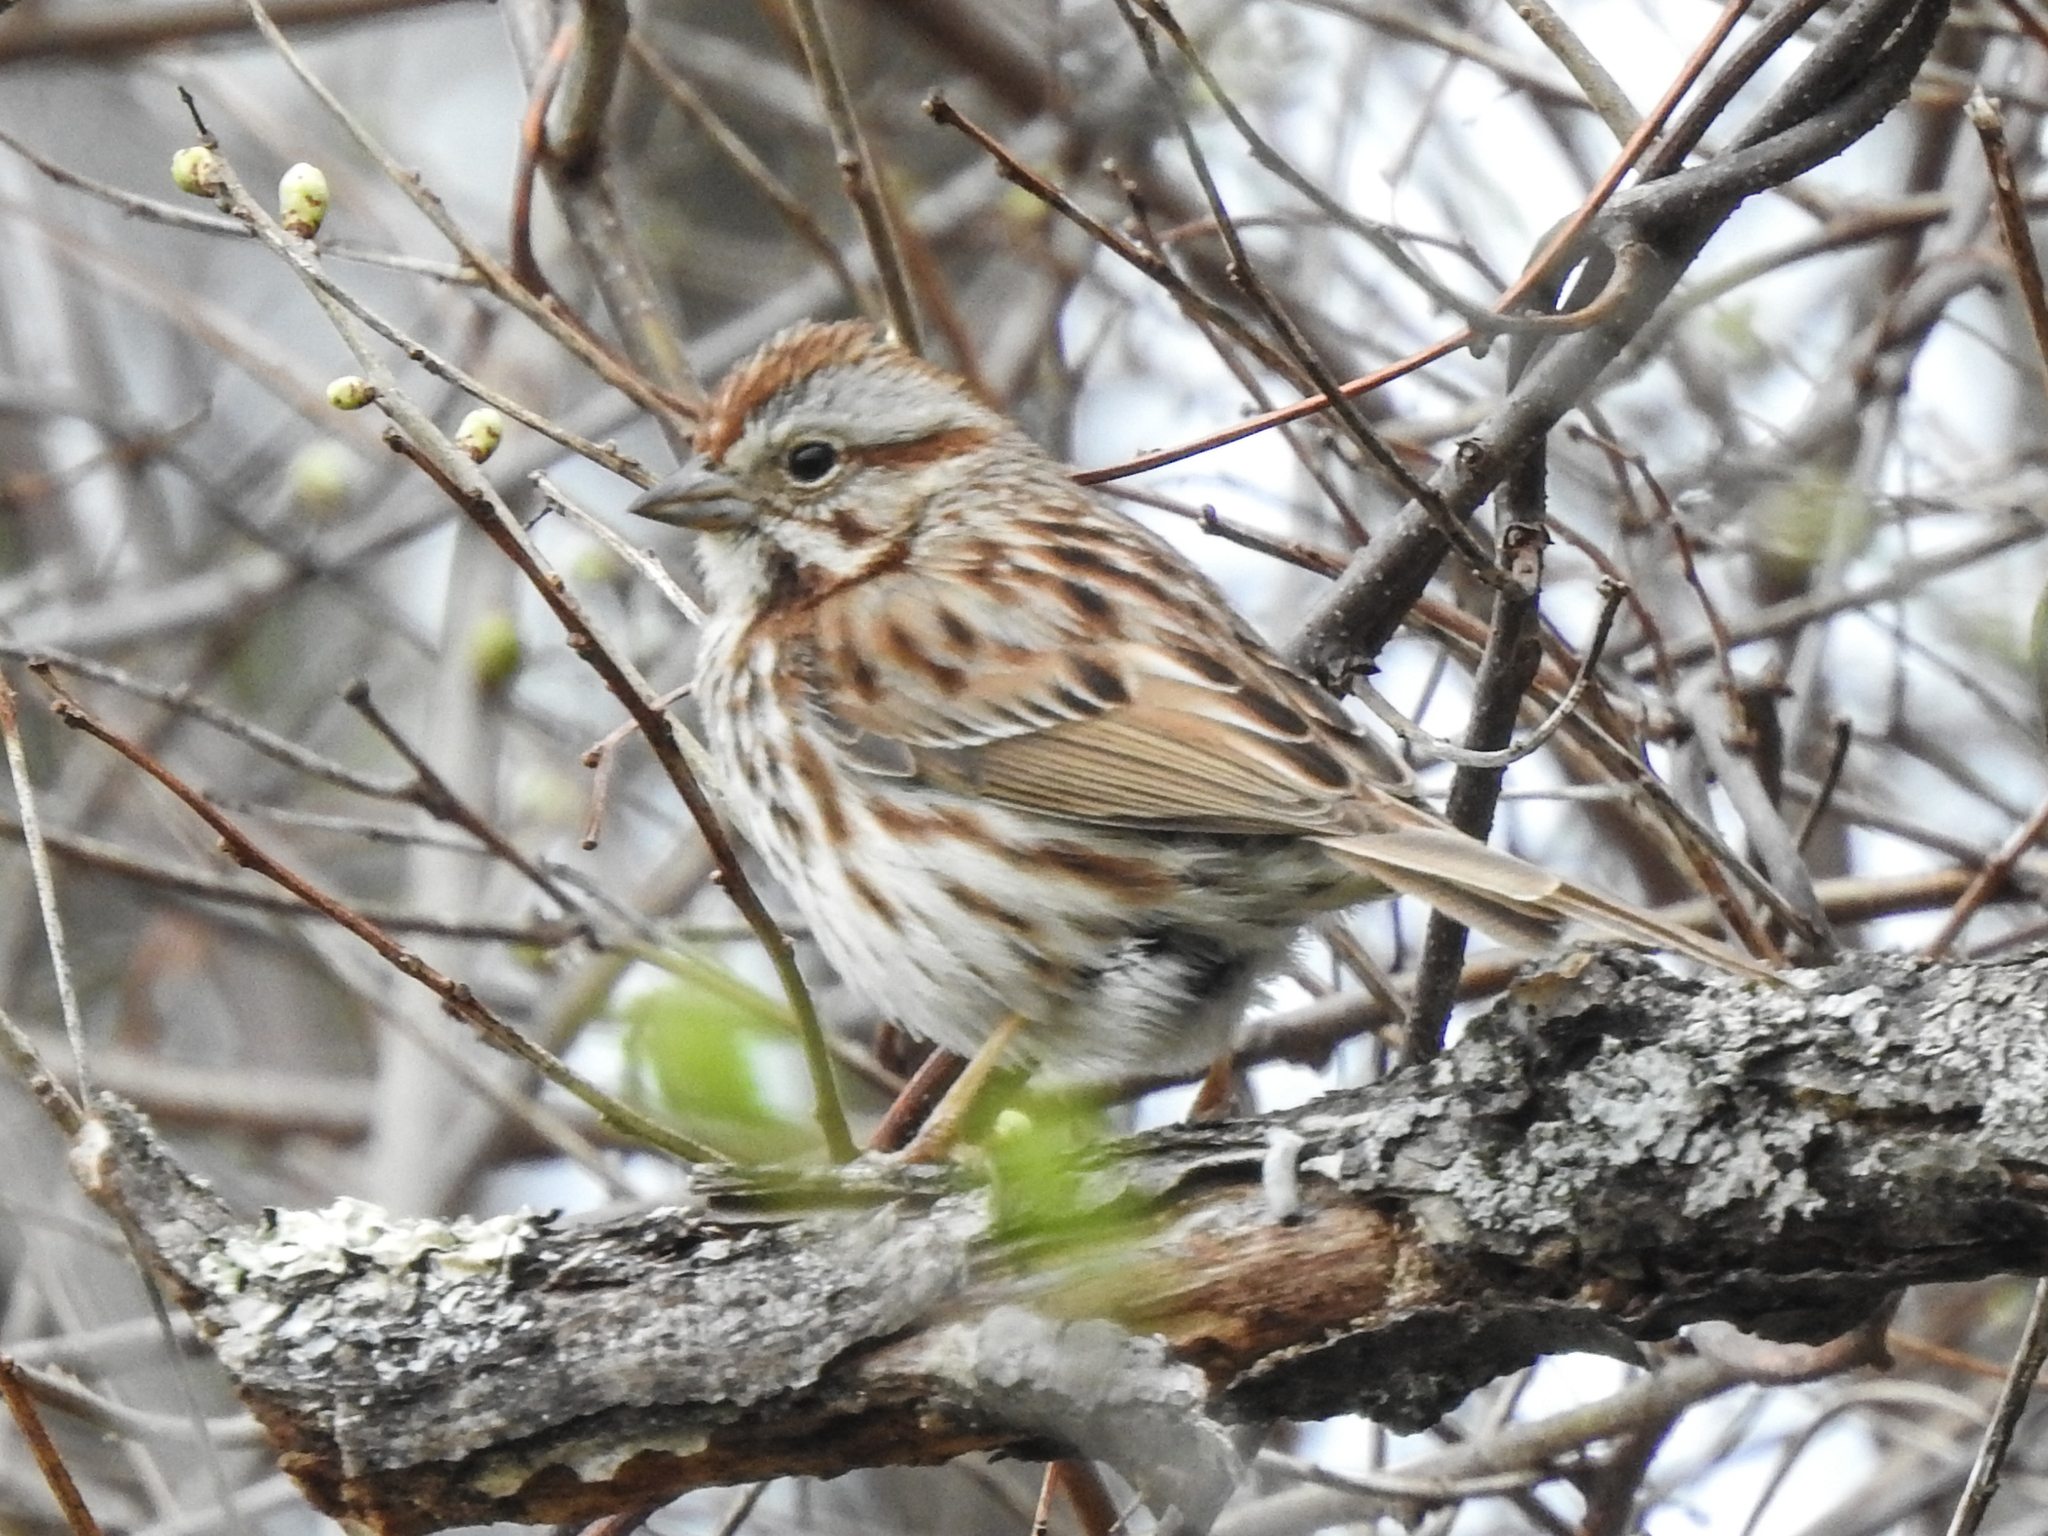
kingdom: Animalia
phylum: Chordata
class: Aves
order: Passeriformes
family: Passerellidae
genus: Melospiza
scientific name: Melospiza melodia
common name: Song sparrow
